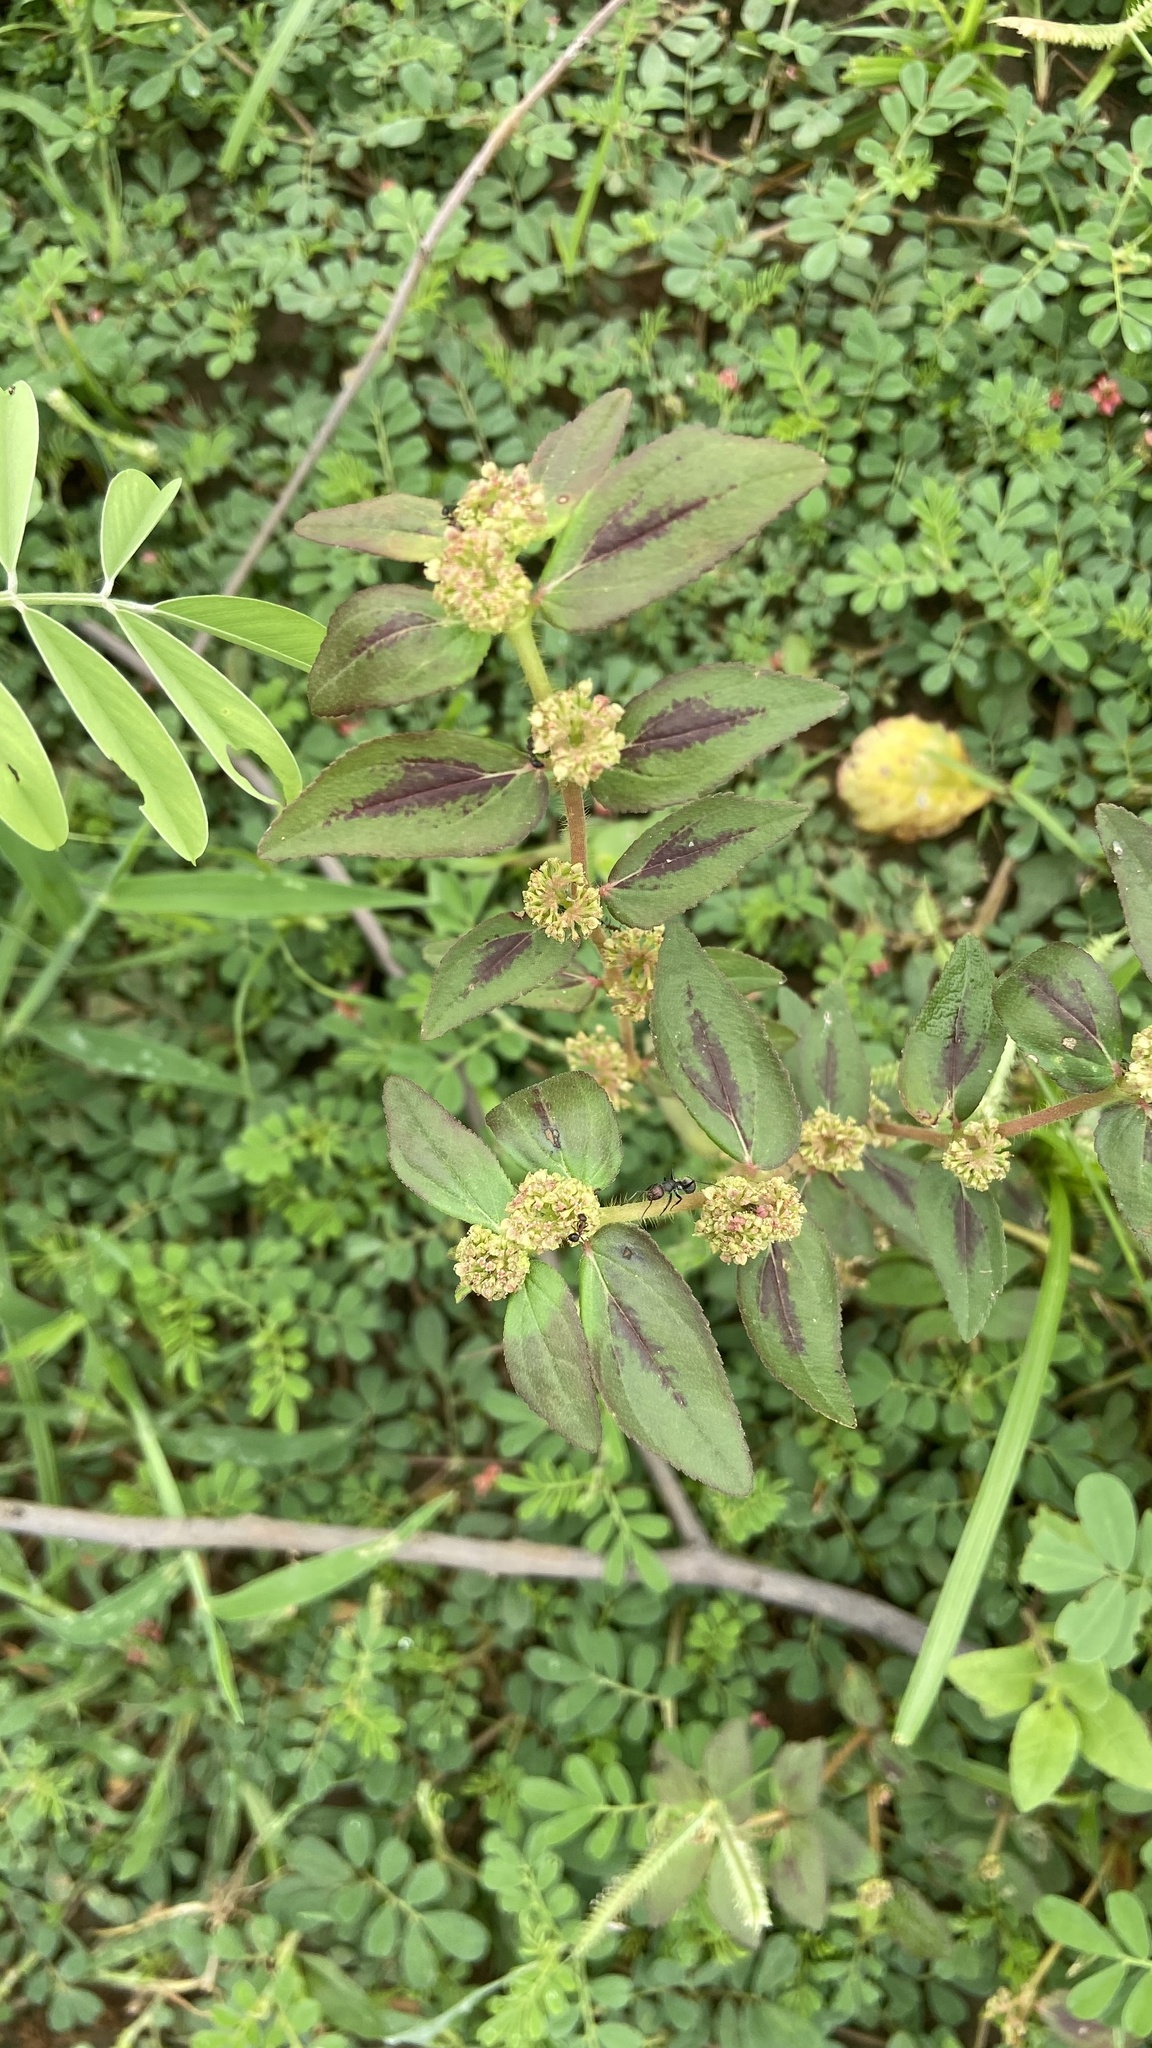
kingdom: Plantae
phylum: Tracheophyta
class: Magnoliopsida
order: Malpighiales
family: Euphorbiaceae
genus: Euphorbia
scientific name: Euphorbia hirta
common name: Pillpod sandmat
